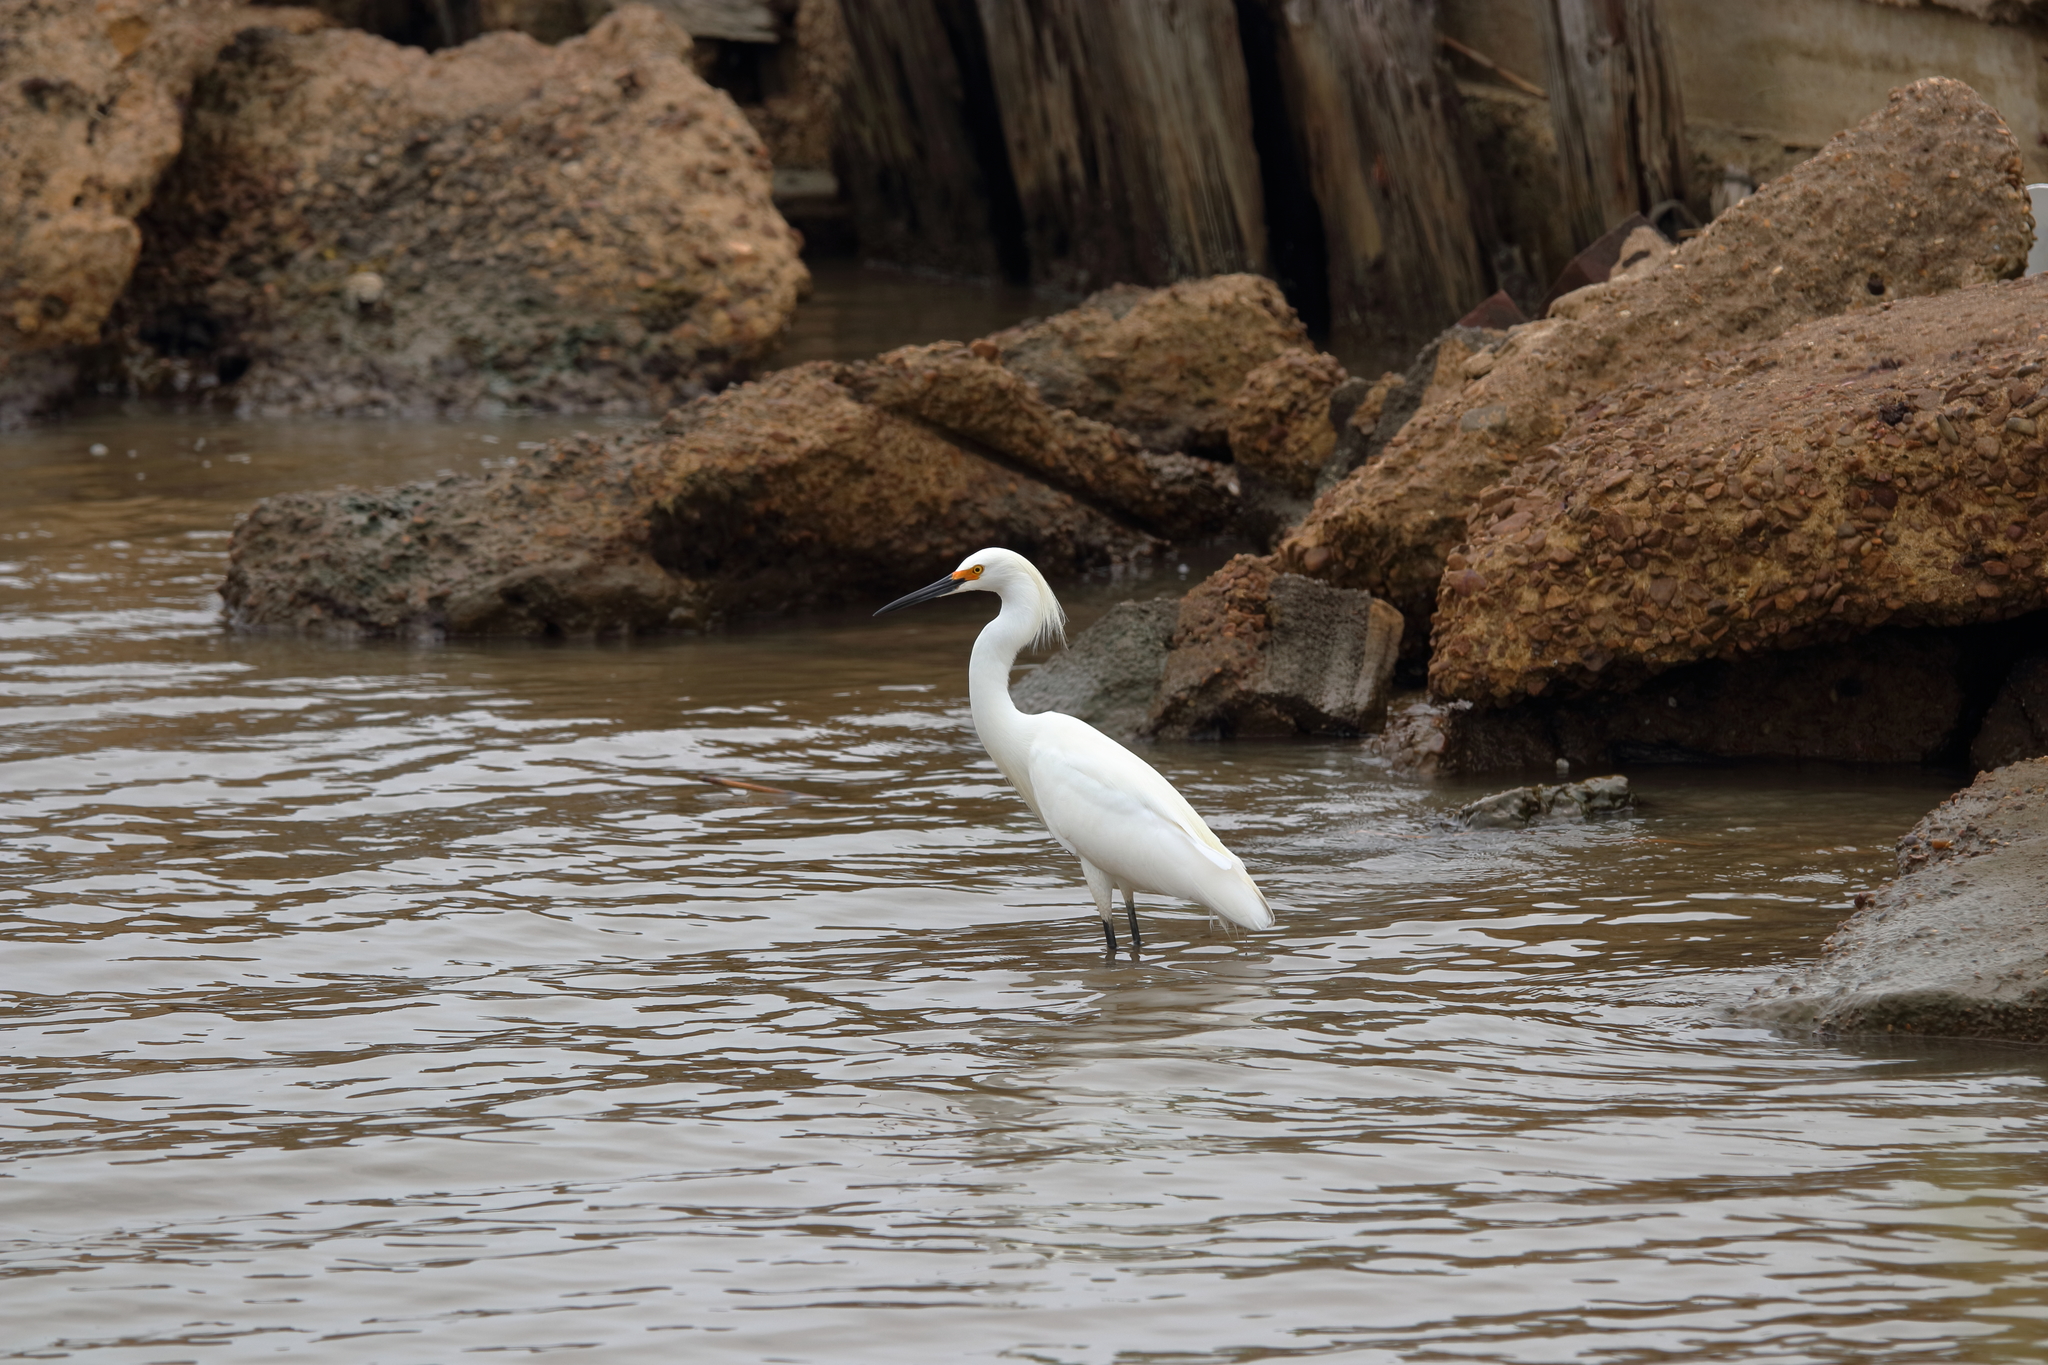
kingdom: Animalia
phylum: Chordata
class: Aves
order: Pelecaniformes
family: Ardeidae
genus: Egretta
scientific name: Egretta thula
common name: Snowy egret
